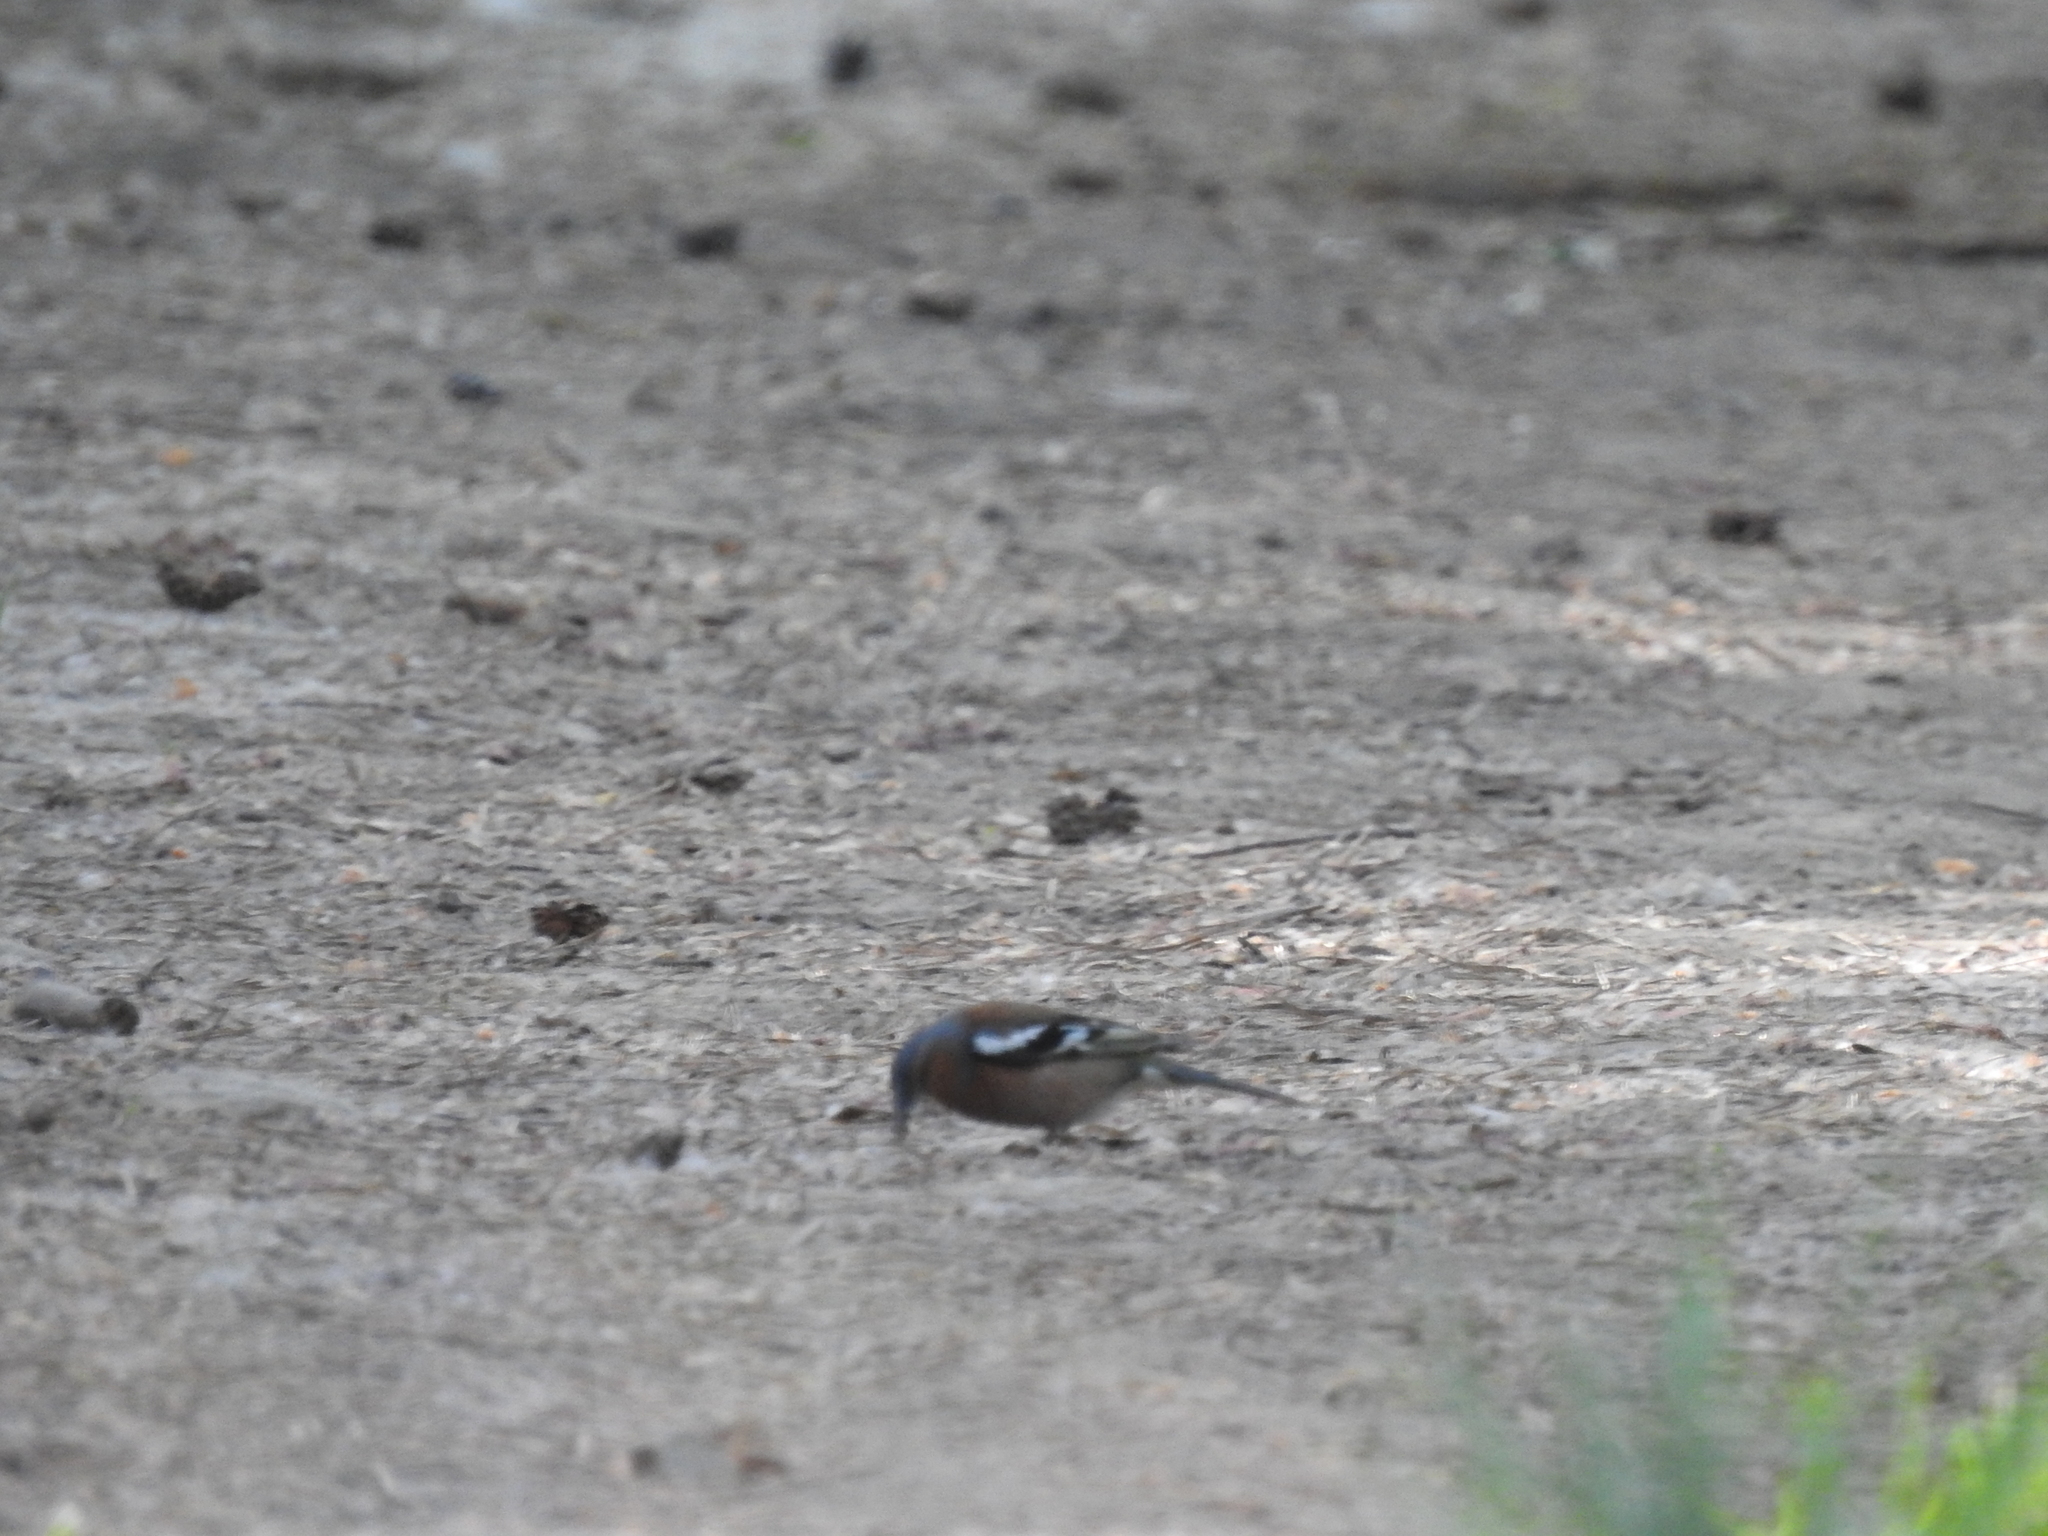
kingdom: Animalia
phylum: Chordata
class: Aves
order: Passeriformes
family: Fringillidae
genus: Fringilla
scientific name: Fringilla coelebs
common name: Common chaffinch
